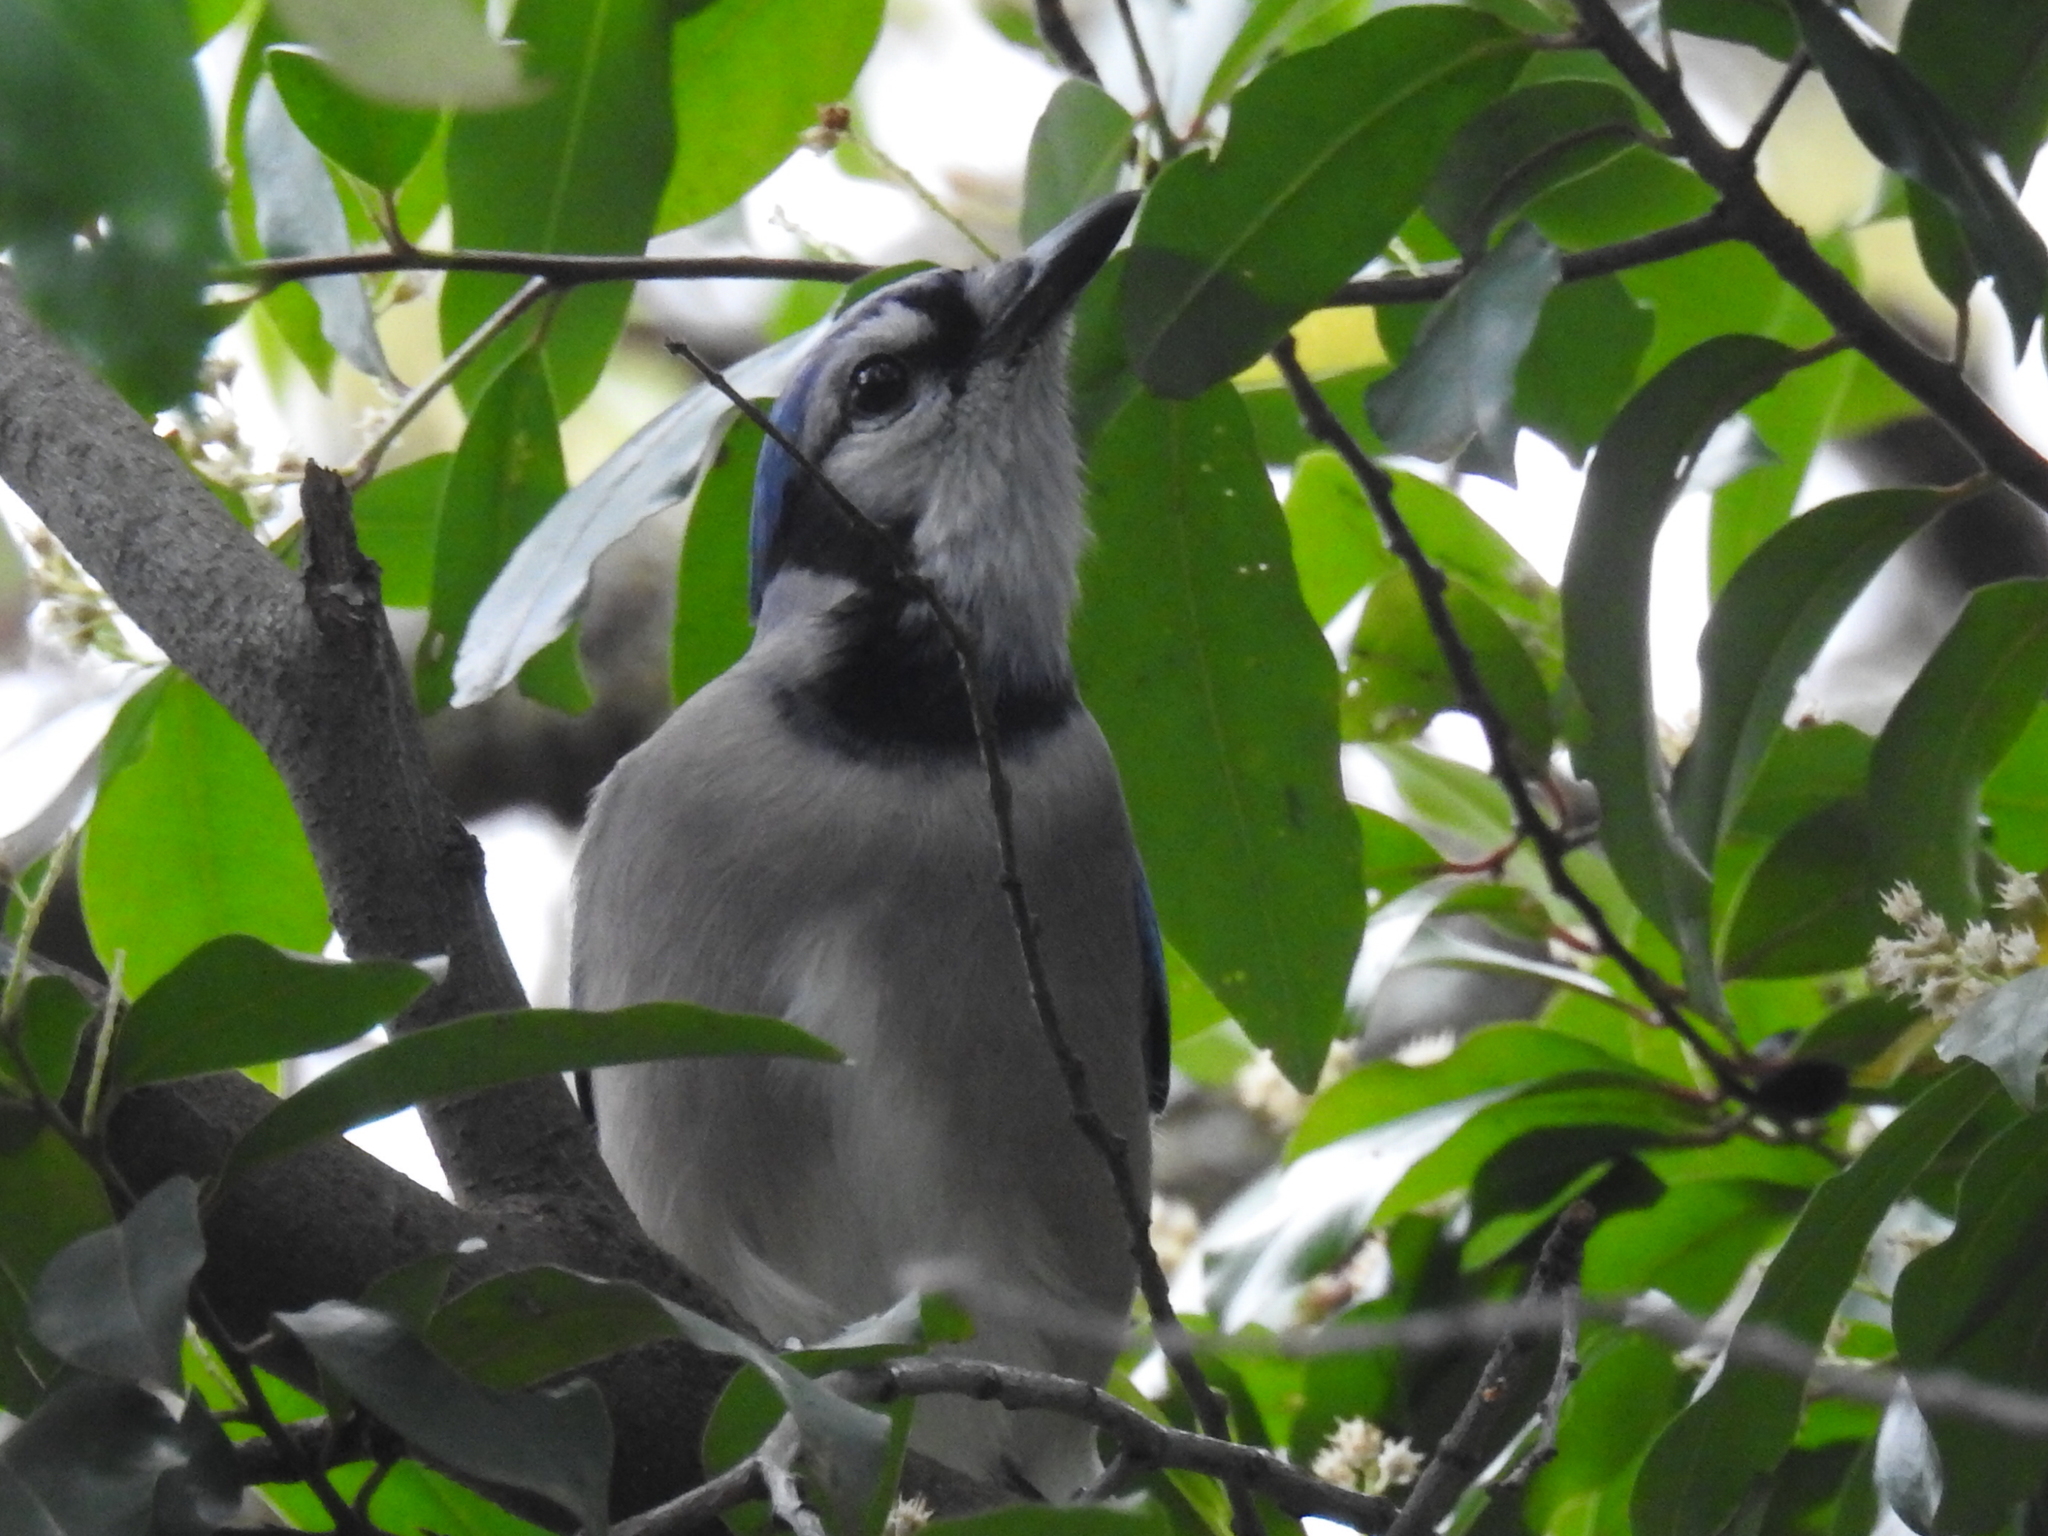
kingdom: Animalia
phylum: Chordata
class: Aves
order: Passeriformes
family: Corvidae
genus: Cyanocitta
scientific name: Cyanocitta cristata
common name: Blue jay
